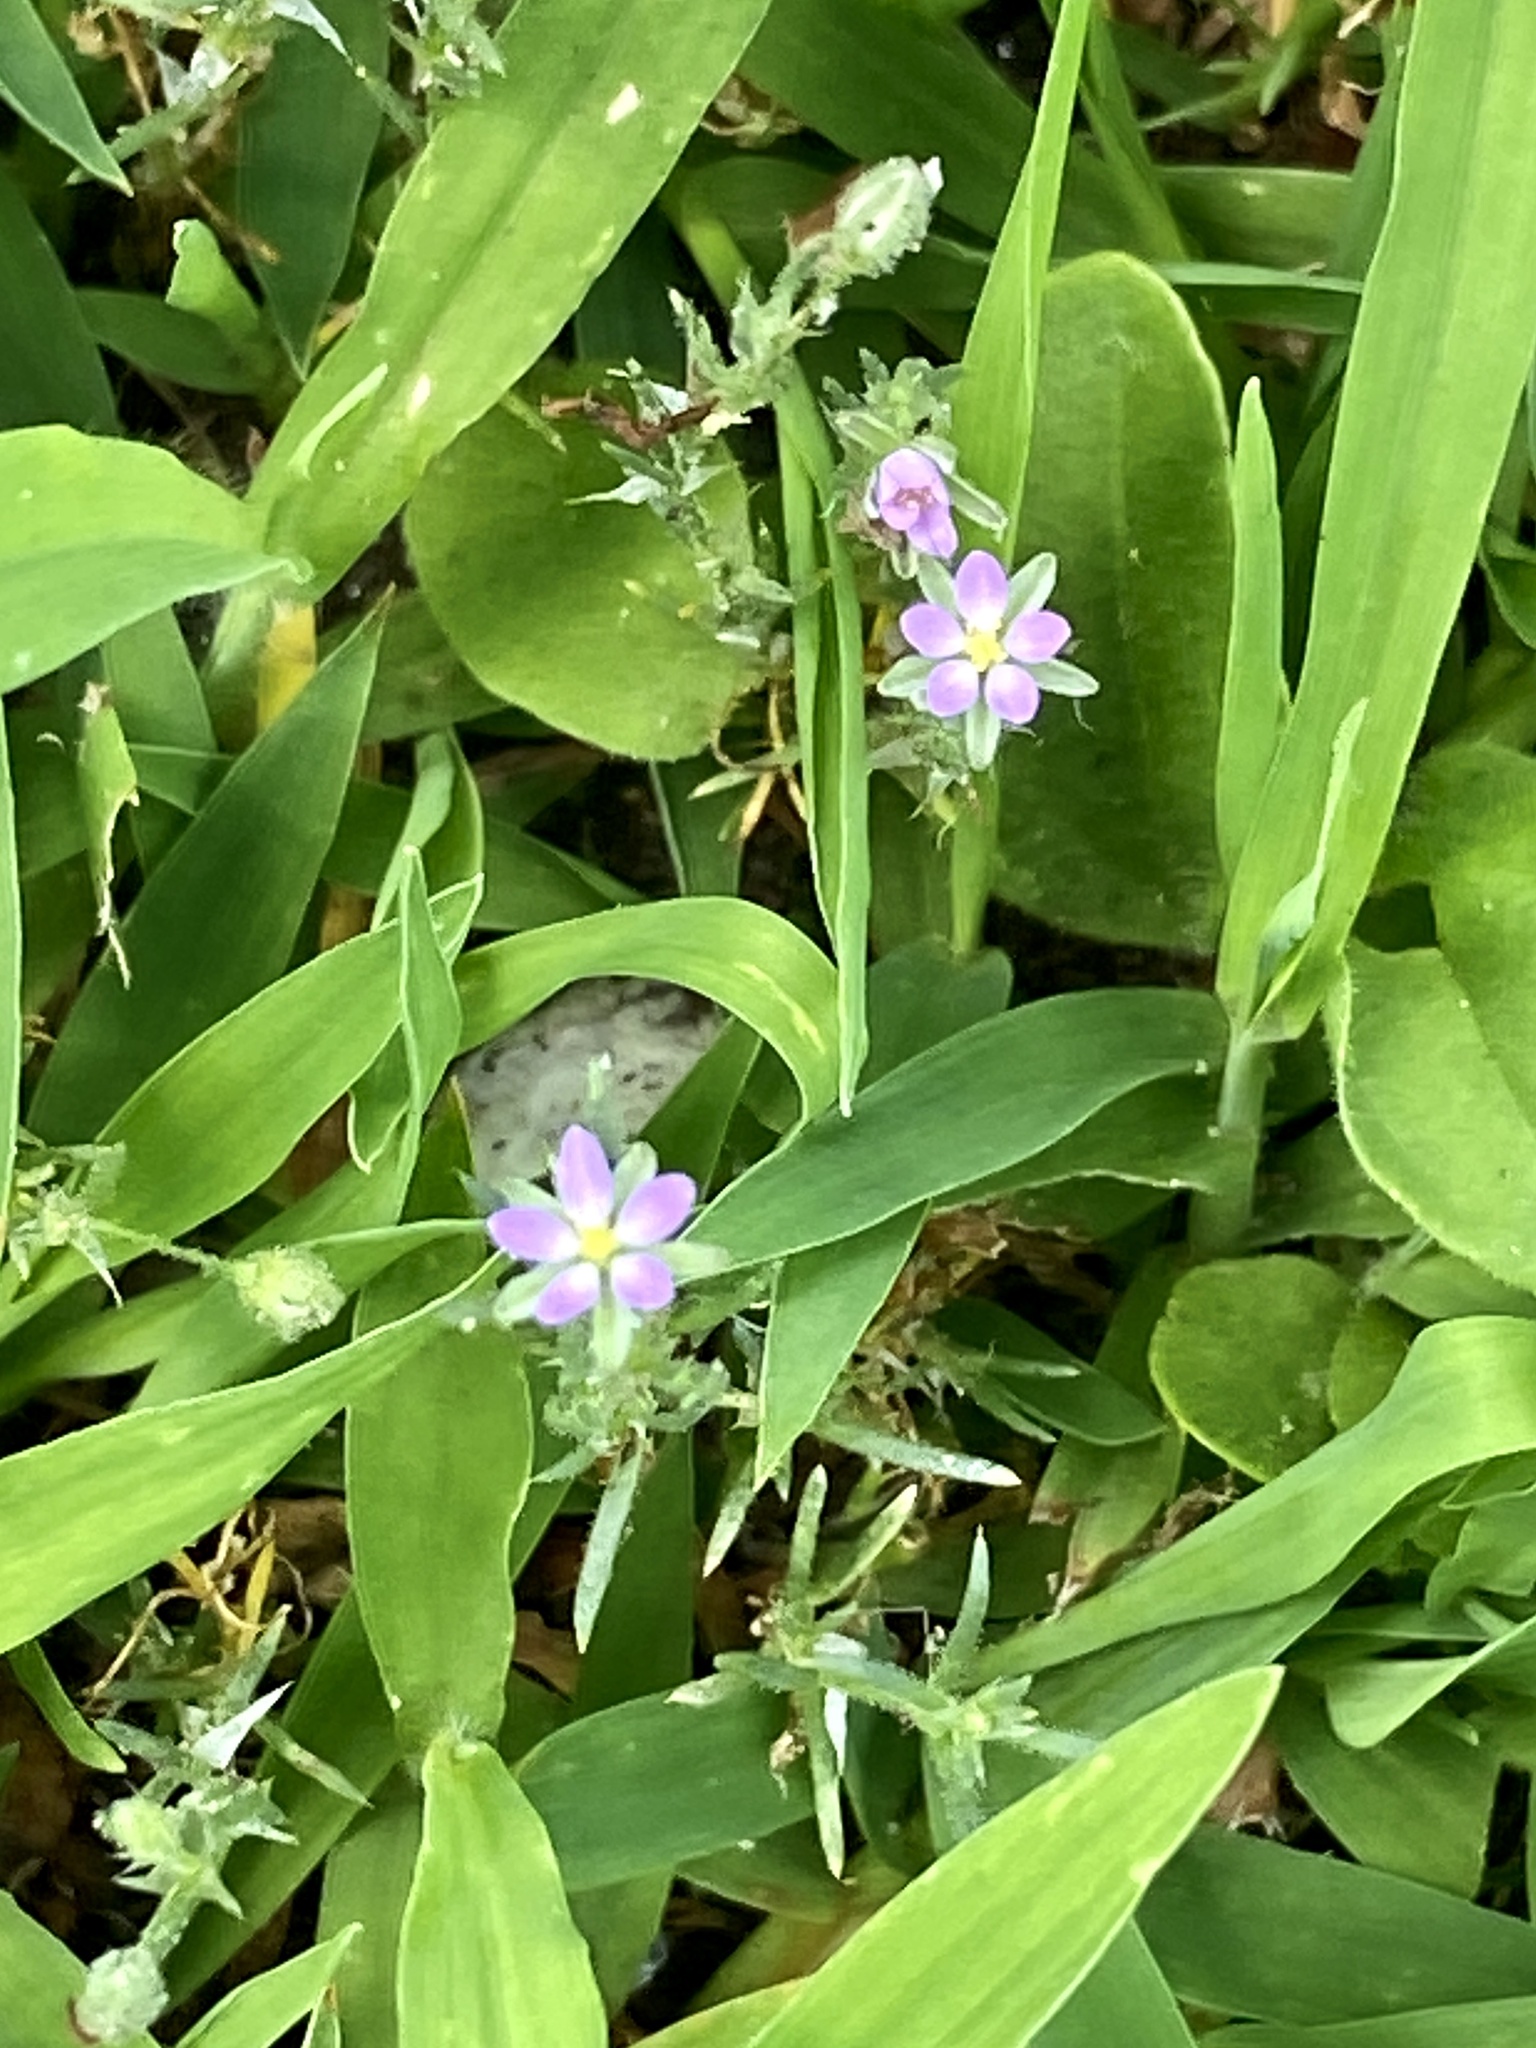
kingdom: Plantae
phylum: Tracheophyta
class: Magnoliopsida
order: Caryophyllales
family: Caryophyllaceae
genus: Spergularia
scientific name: Spergularia rubra
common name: Red sand-spurrey
